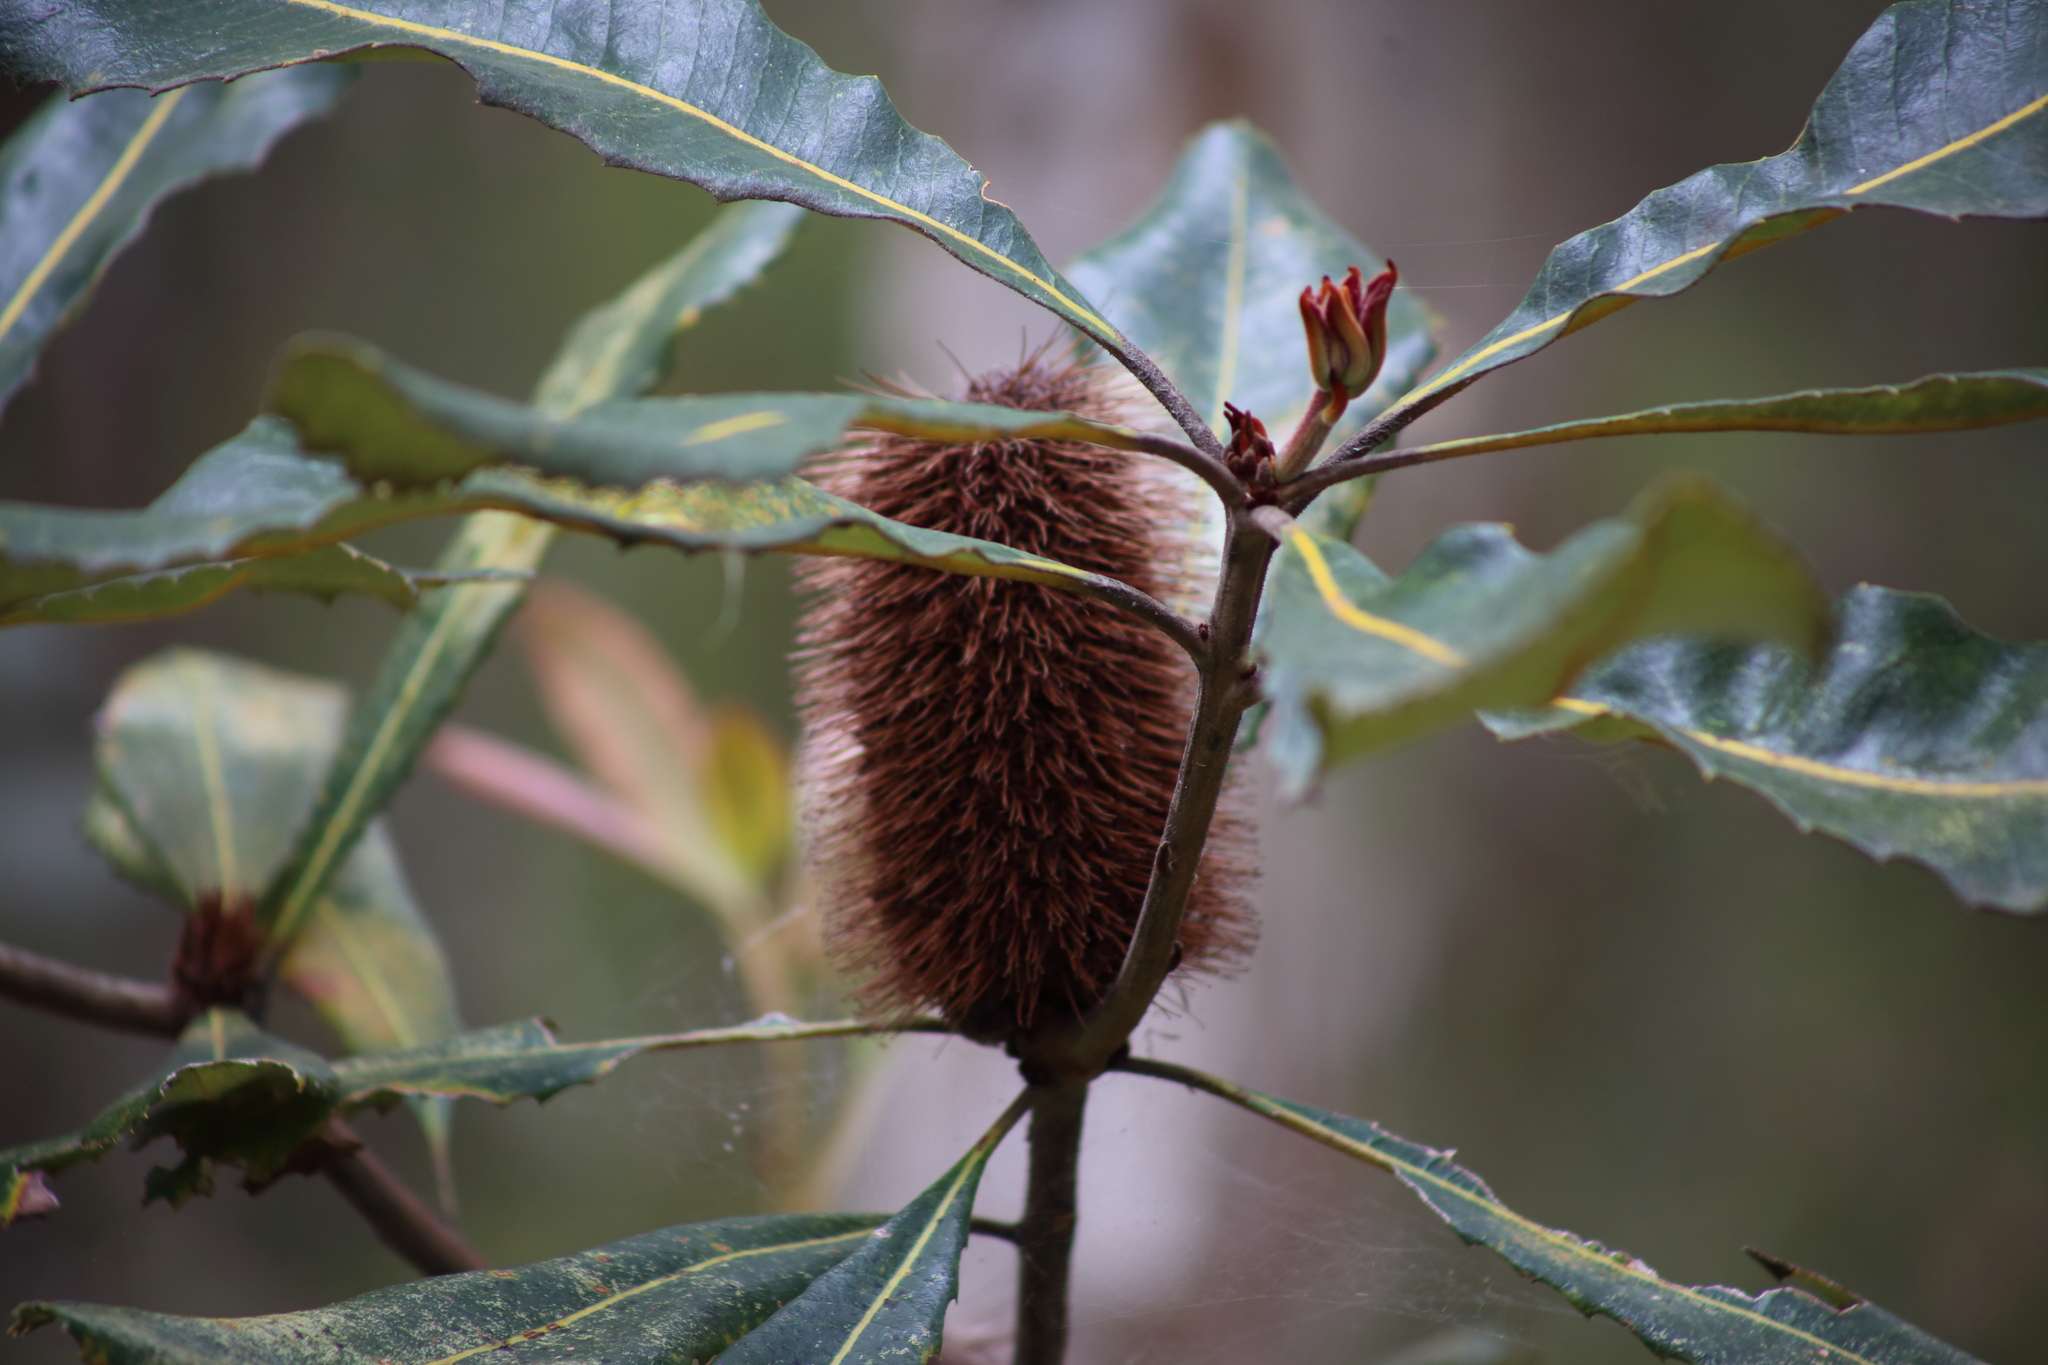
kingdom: Plantae
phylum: Tracheophyta
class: Magnoliopsida
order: Proteales
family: Proteaceae
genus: Banksia
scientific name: Banksia robur
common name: Broadleaf banksia
